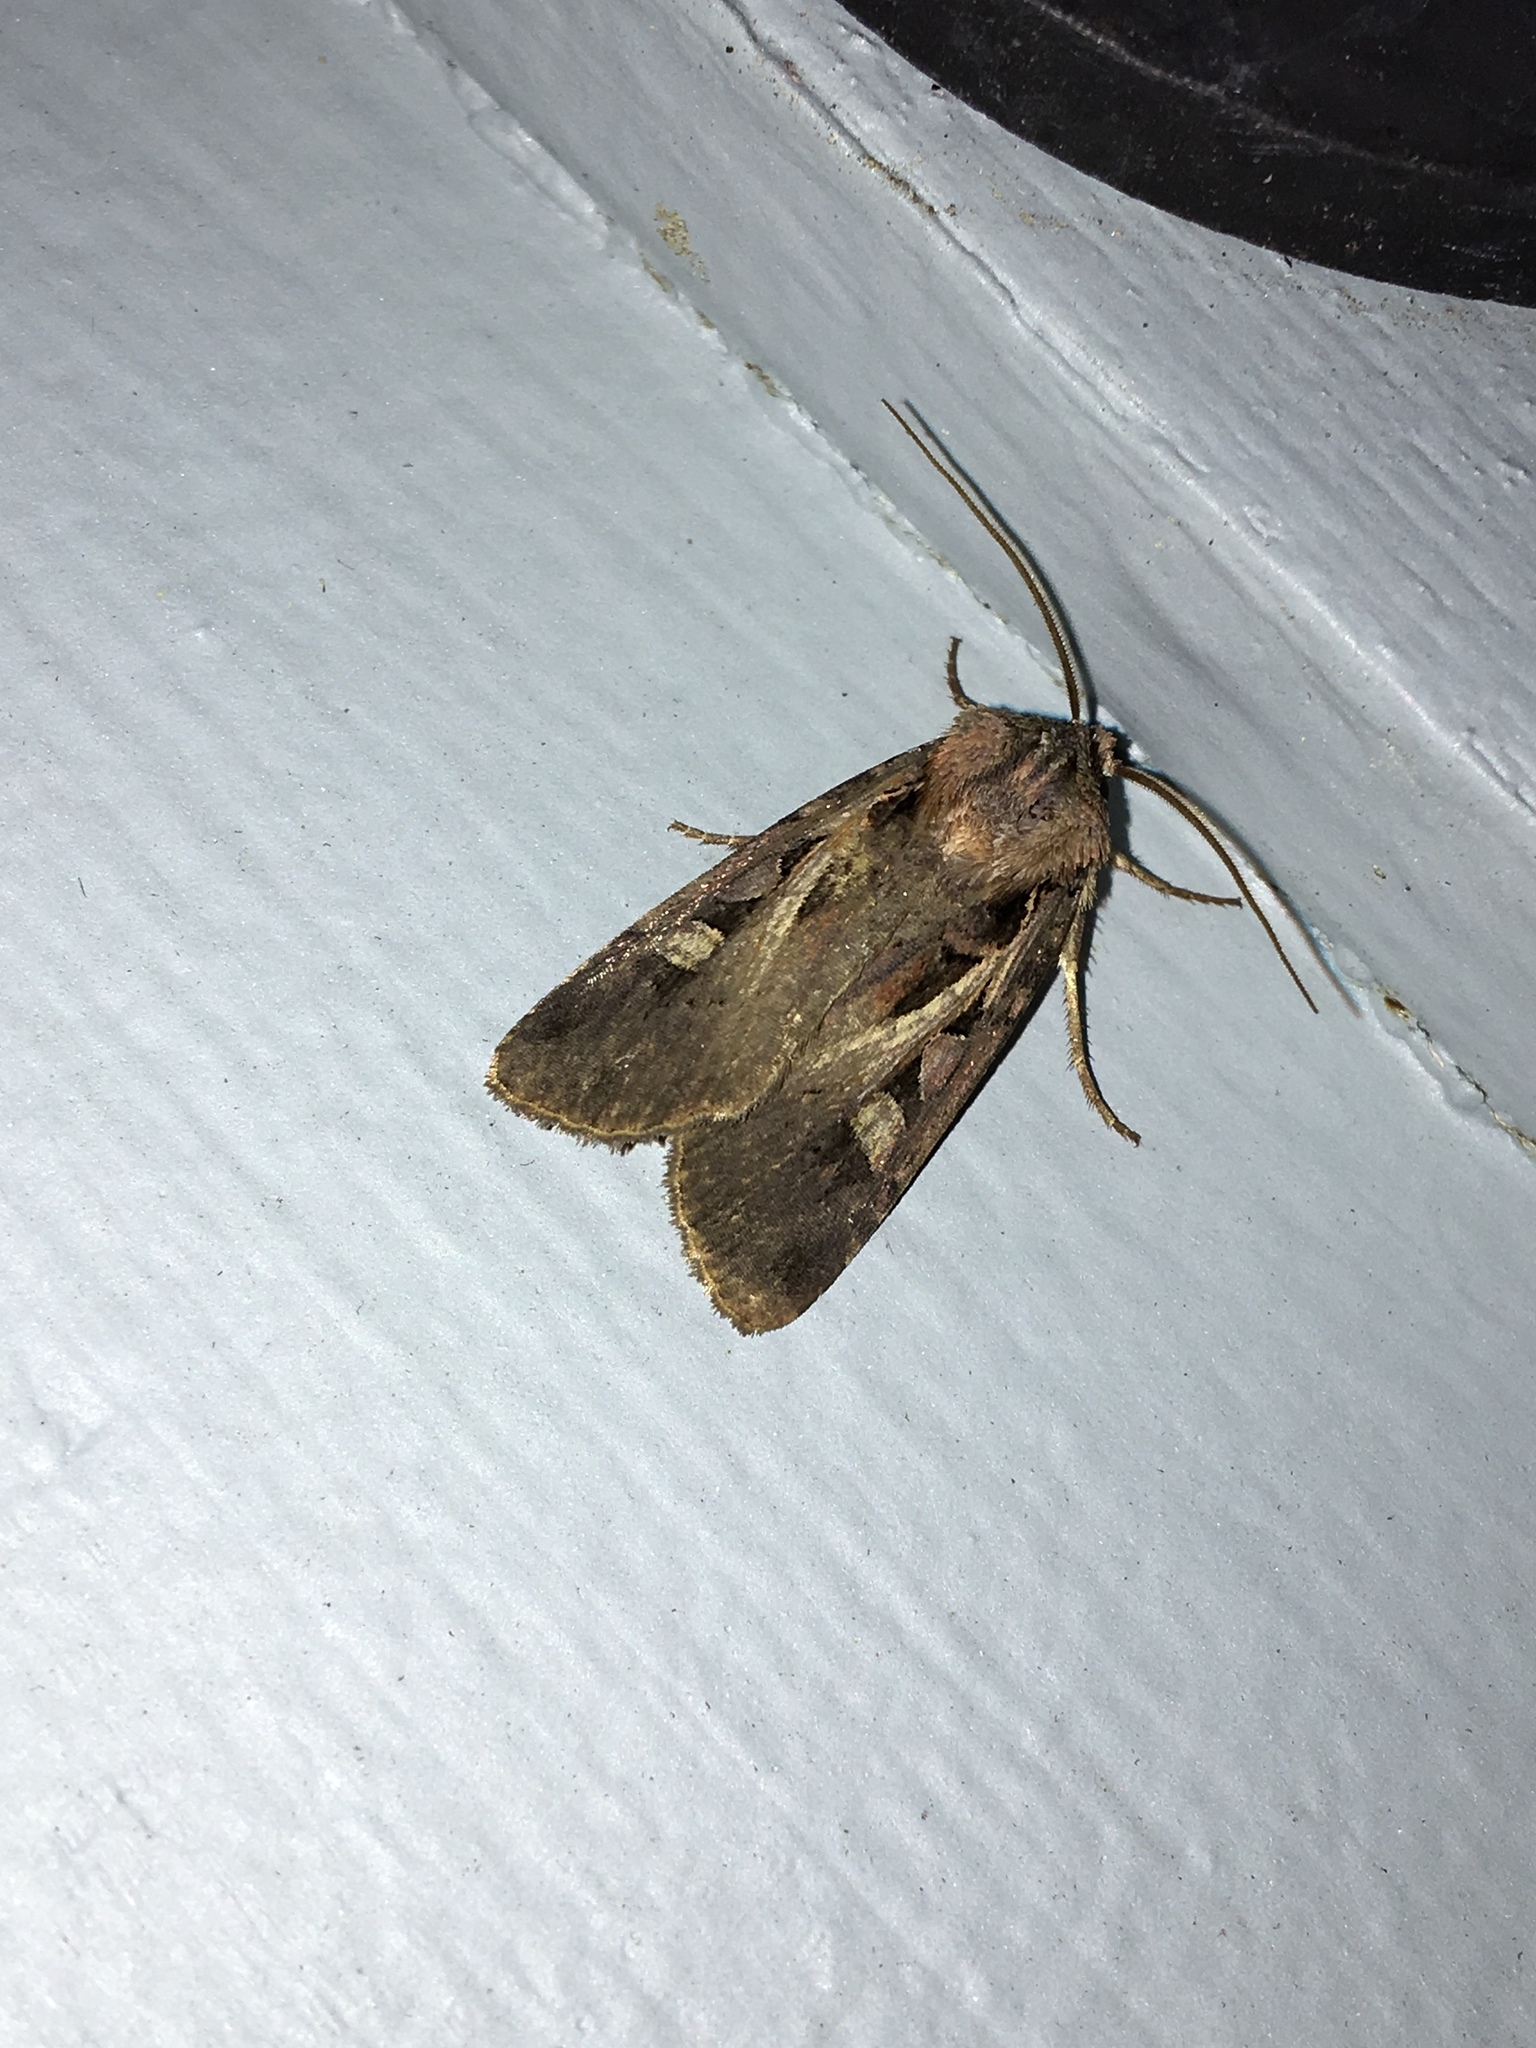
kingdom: Animalia
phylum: Arthropoda
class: Insecta
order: Lepidoptera
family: Noctuidae
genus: Feltia
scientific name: Feltia herilis
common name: Master's dart
